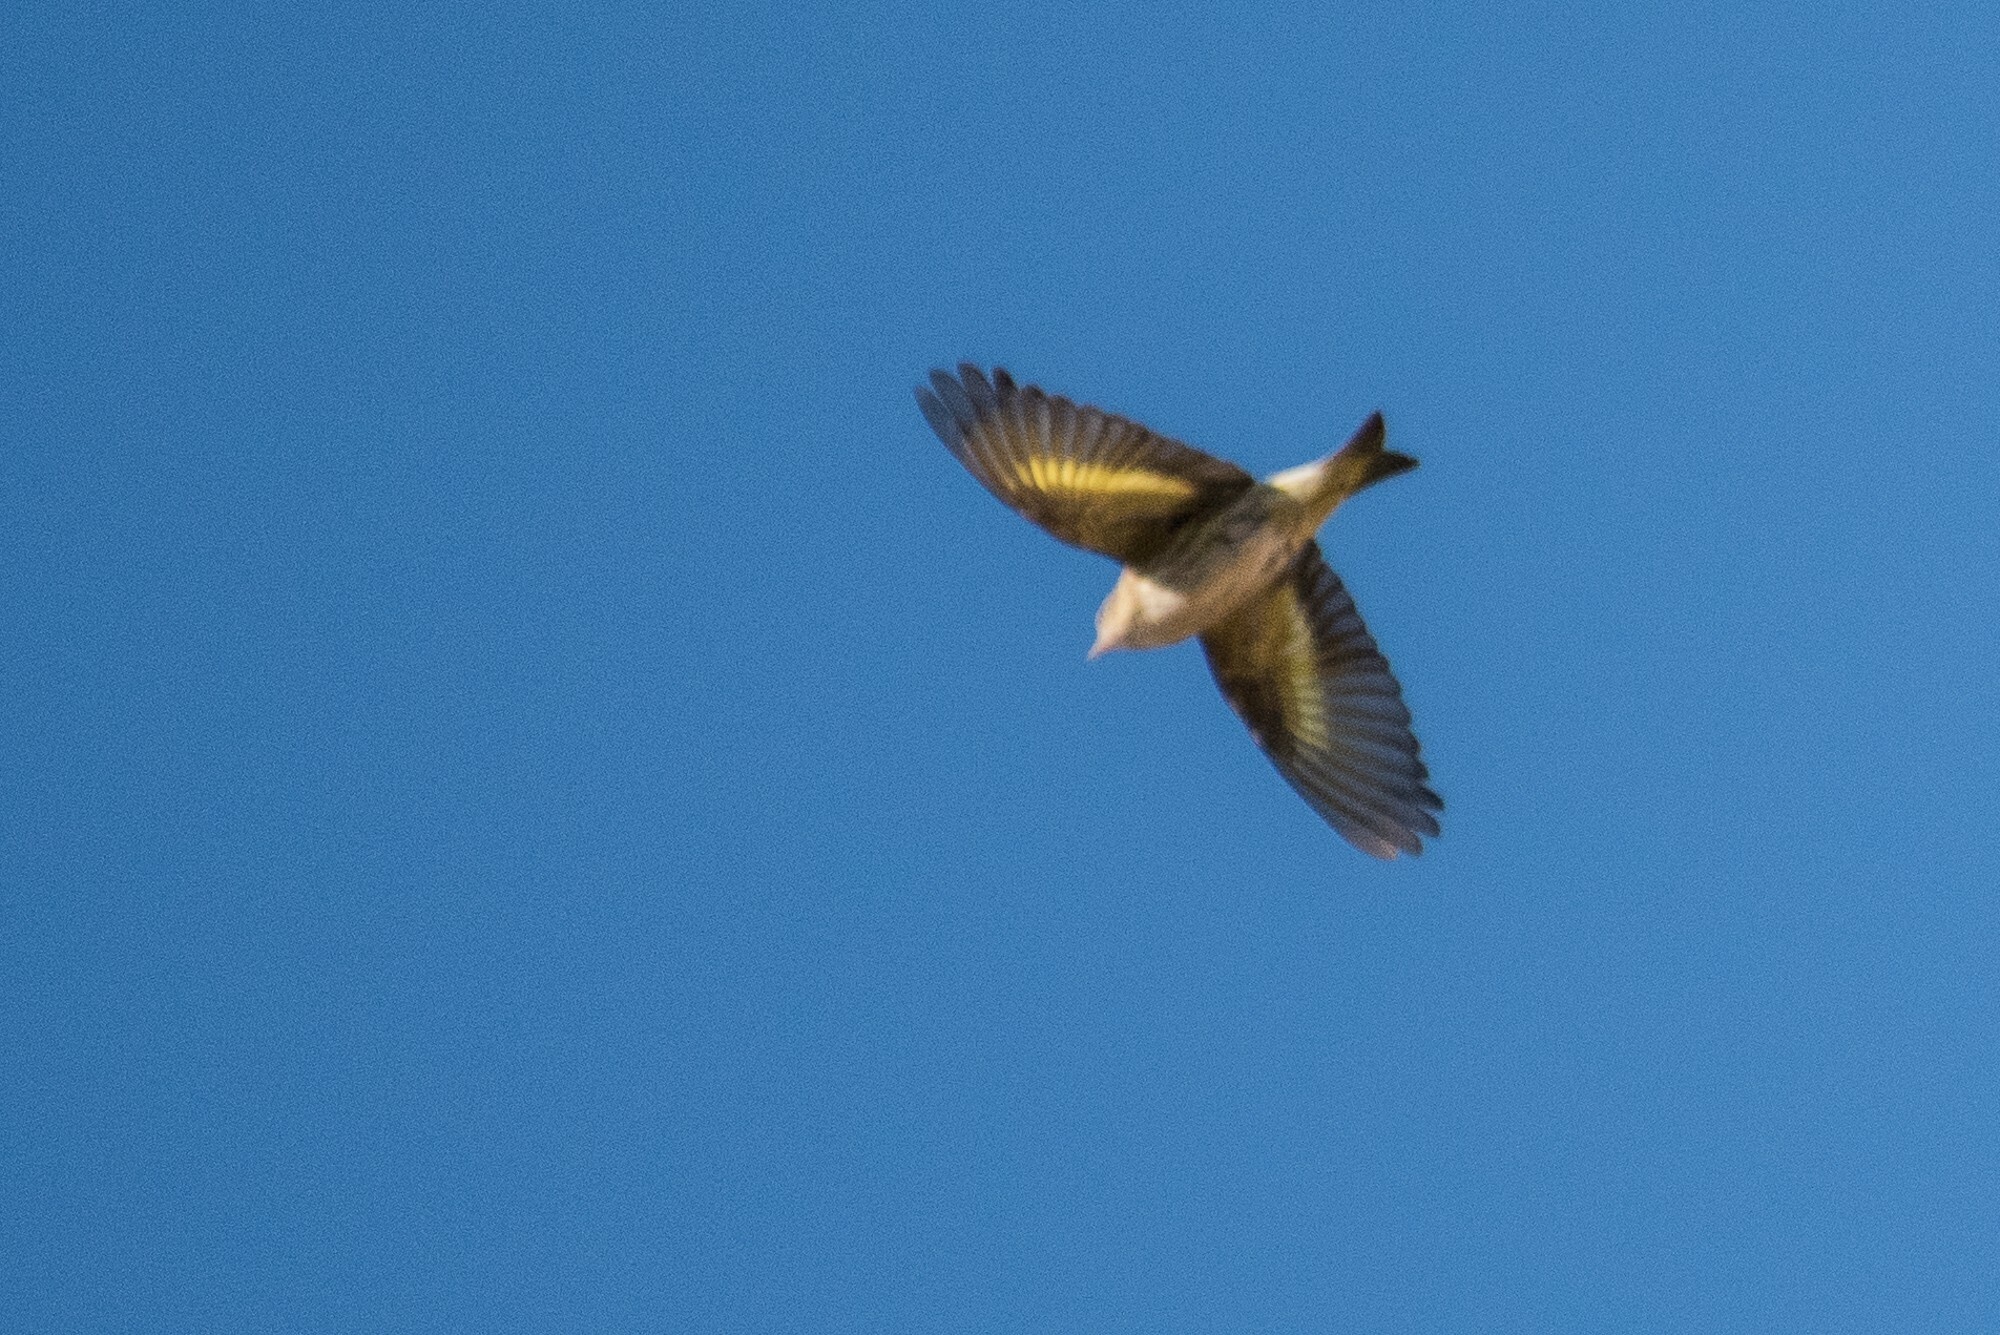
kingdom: Animalia
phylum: Chordata
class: Aves
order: Passeriformes
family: Fringillidae
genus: Spinus
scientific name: Spinus pinus
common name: Pine siskin
